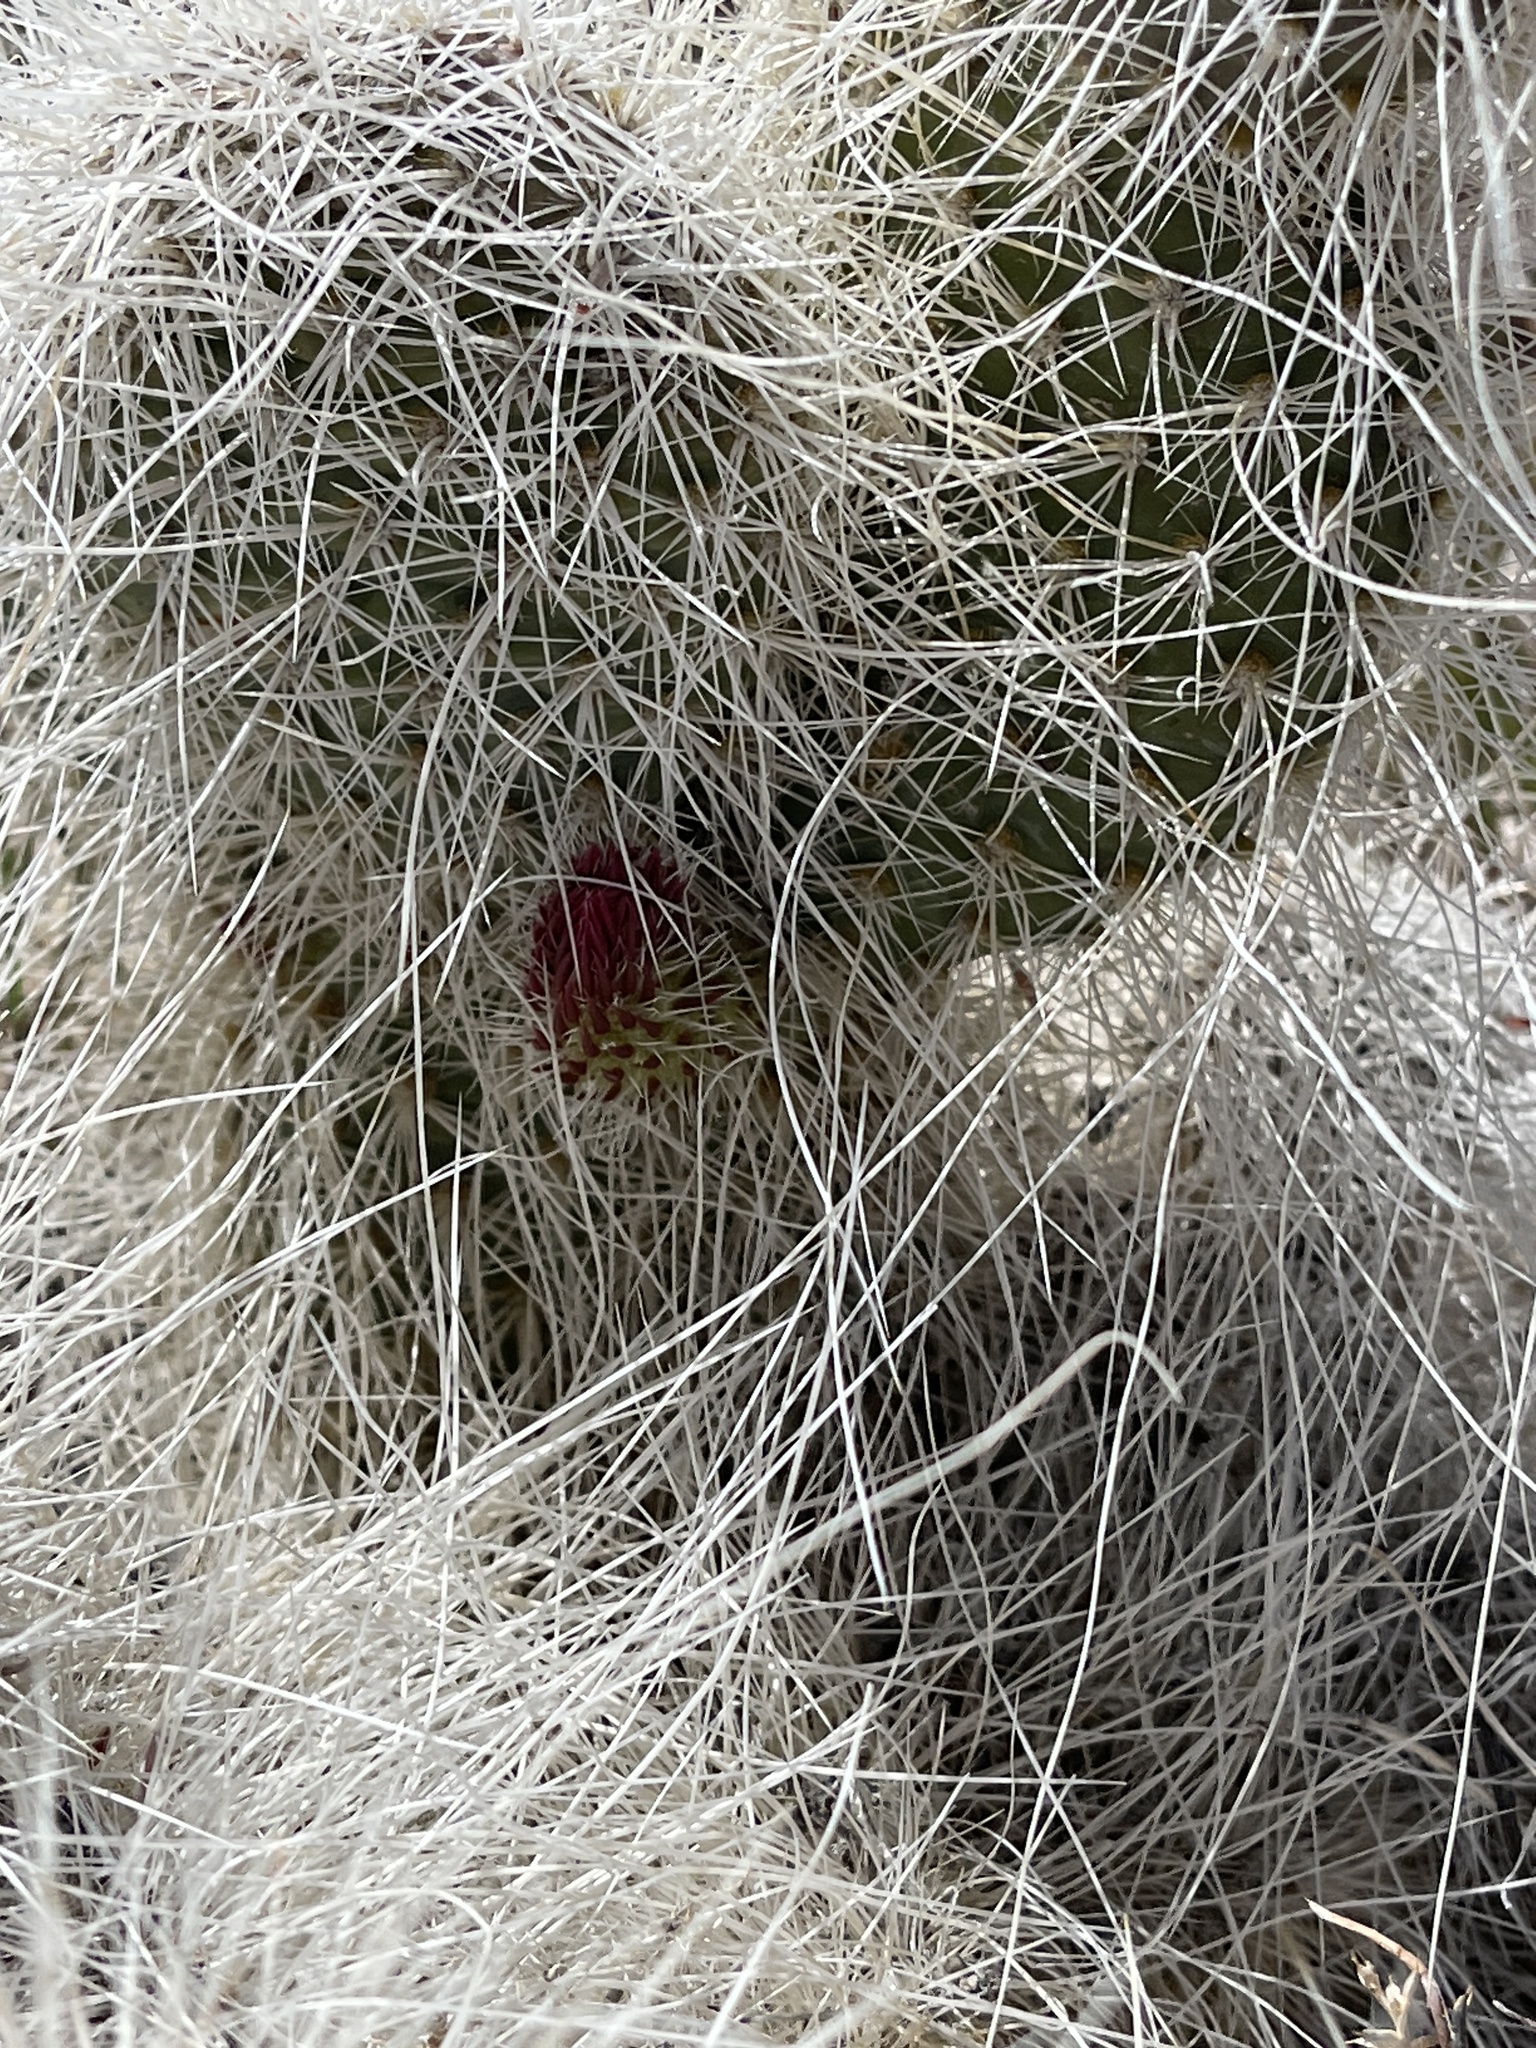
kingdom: Plantae
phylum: Tracheophyta
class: Magnoliopsida
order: Caryophyllales
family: Cactaceae
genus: Opuntia
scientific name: Opuntia polyacantha
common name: Plains prickly-pear
